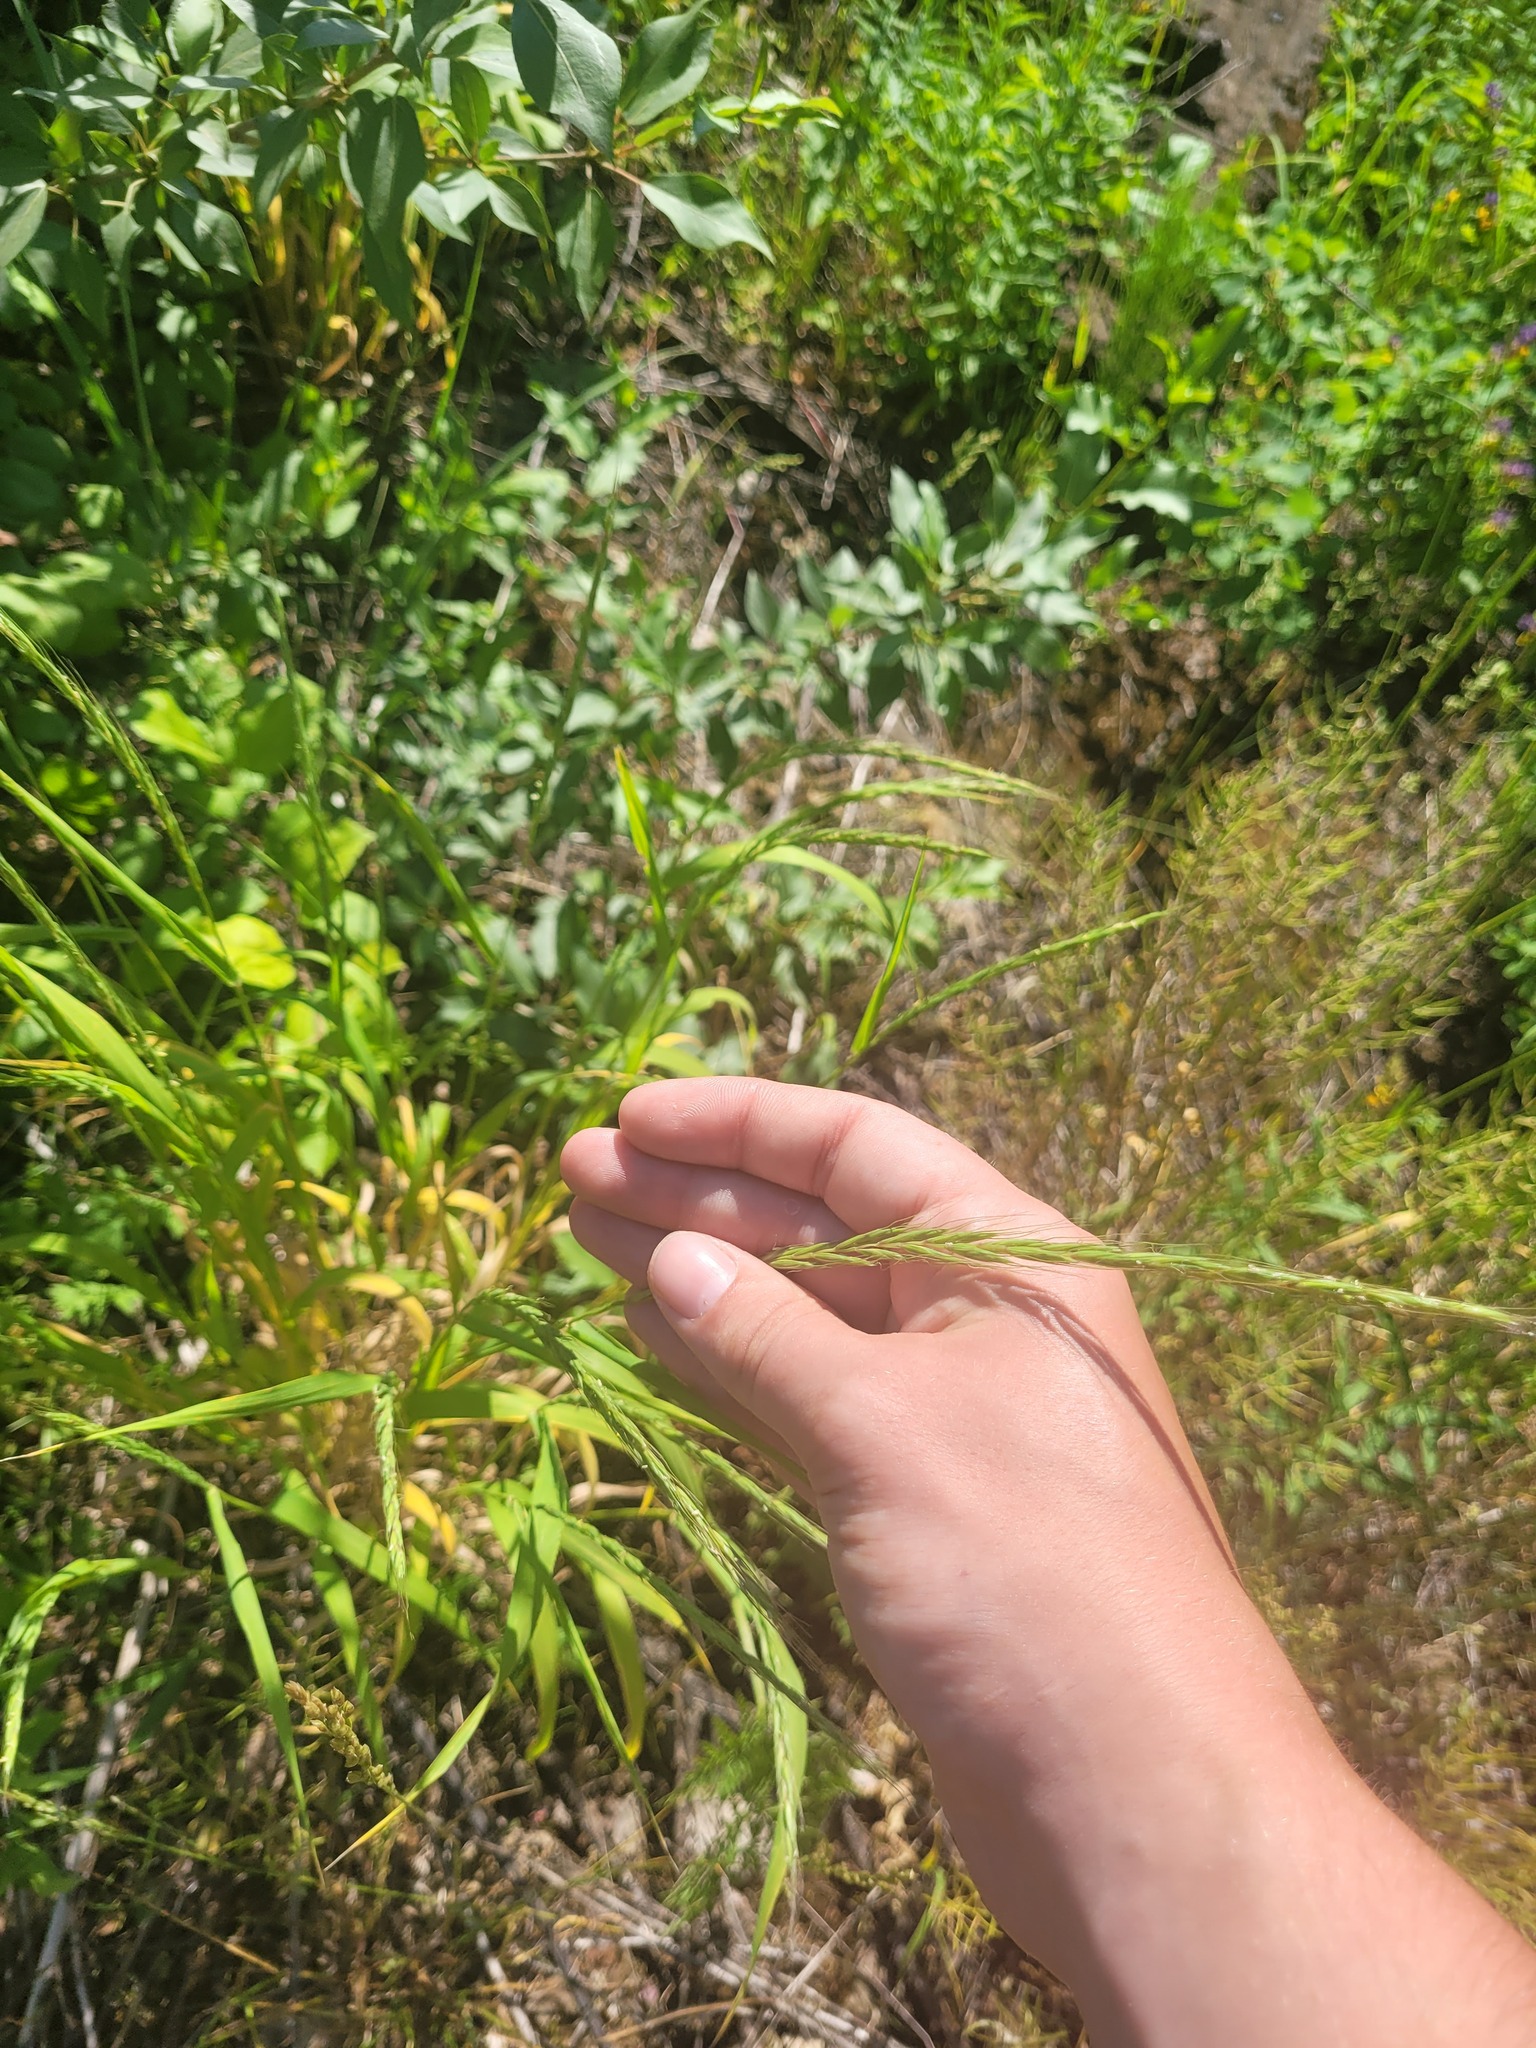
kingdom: Plantae
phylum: Tracheophyta
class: Liliopsida
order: Poales
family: Poaceae
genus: Elymus
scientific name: Elymus caninus
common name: Bearded couch
